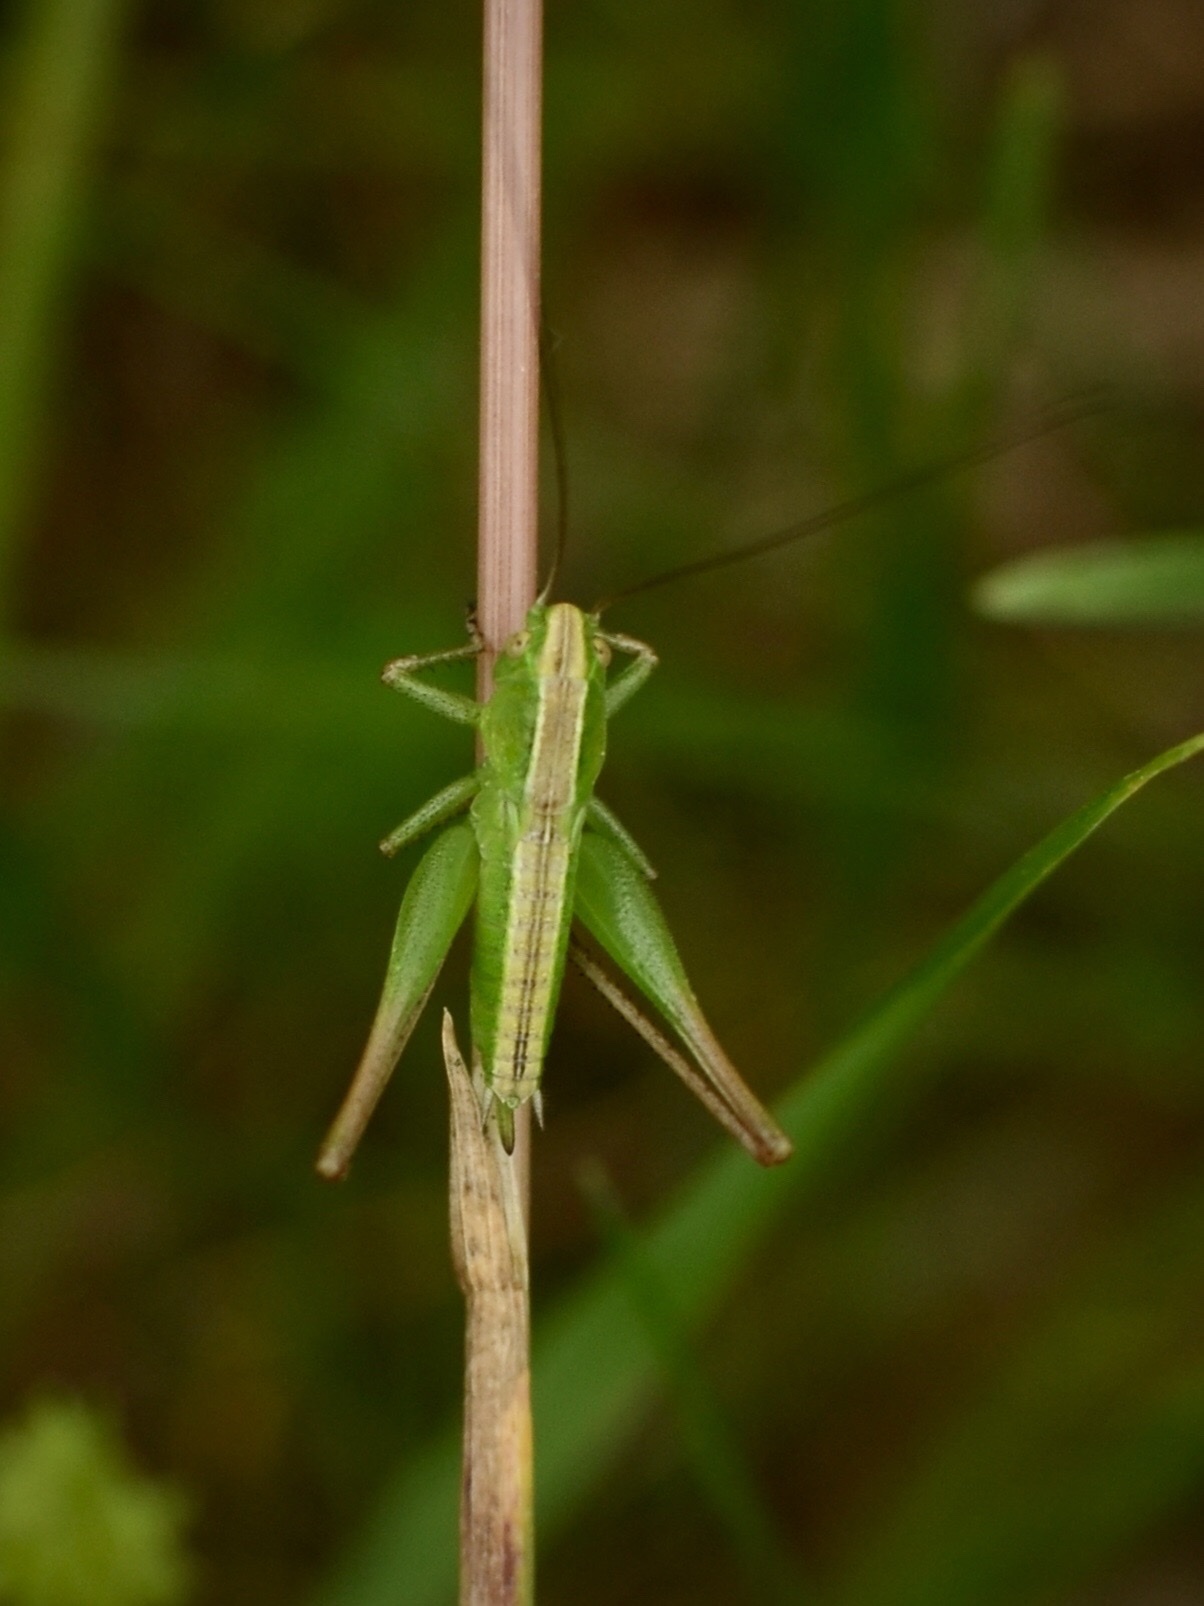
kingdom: Animalia
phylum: Arthropoda
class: Insecta
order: Orthoptera
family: Tettigoniidae
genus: Bicolorana
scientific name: Bicolorana bicolor
